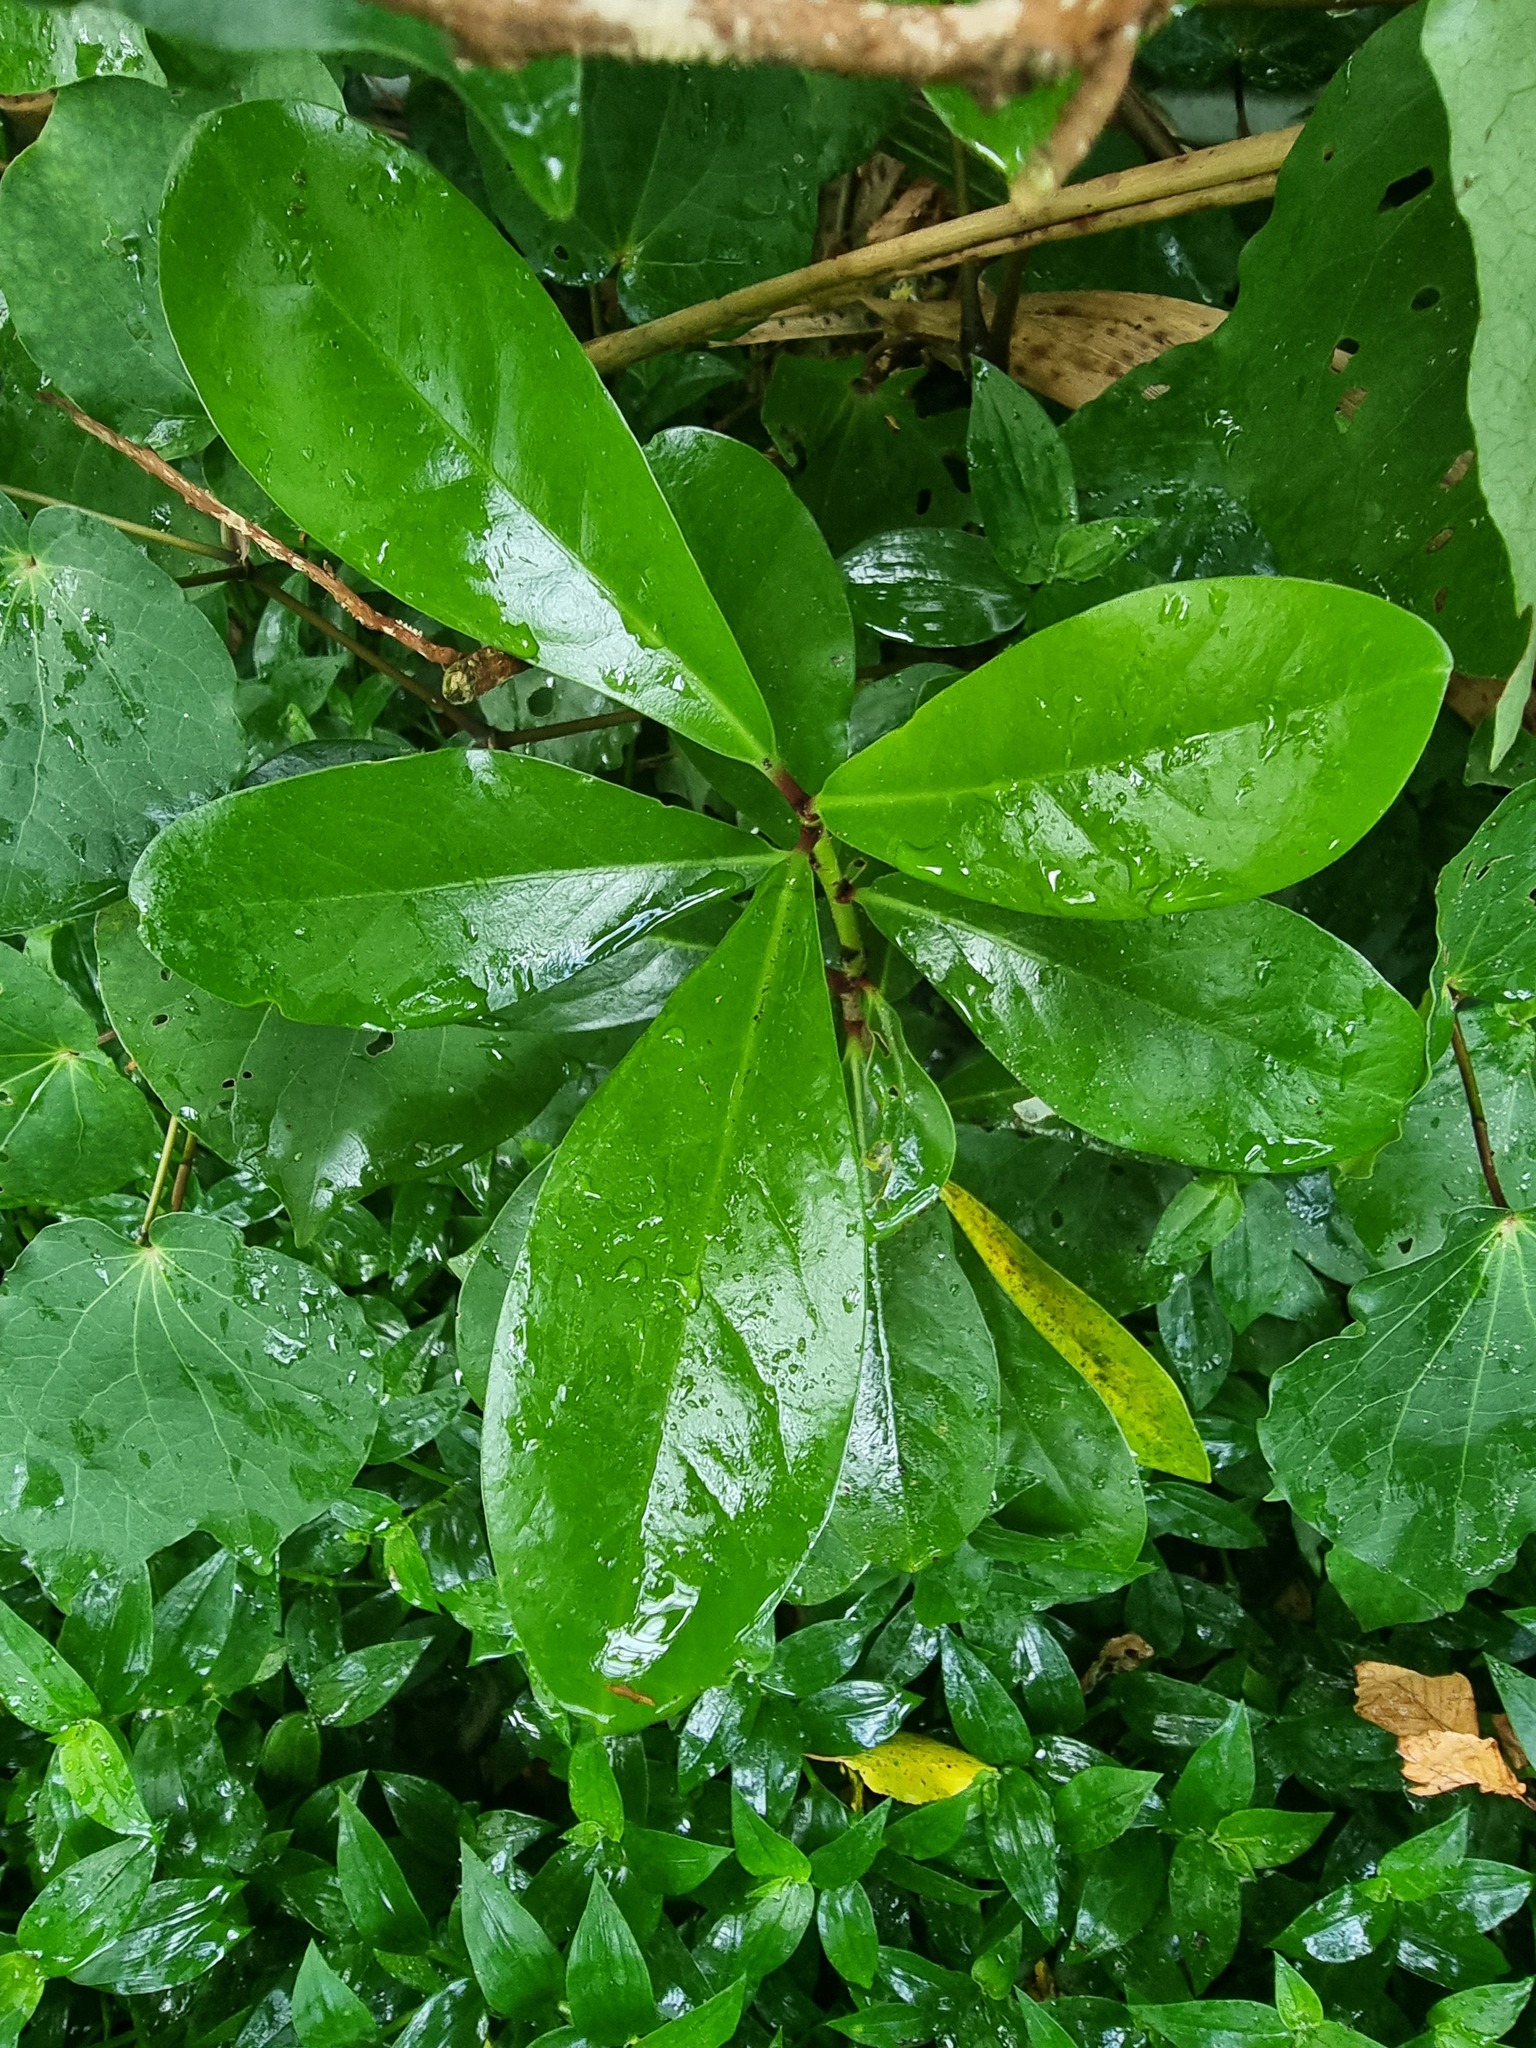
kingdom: Plantae
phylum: Tracheophyta
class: Magnoliopsida
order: Cucurbitales
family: Corynocarpaceae
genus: Corynocarpus
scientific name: Corynocarpus laevigatus
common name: New zealand laurel
